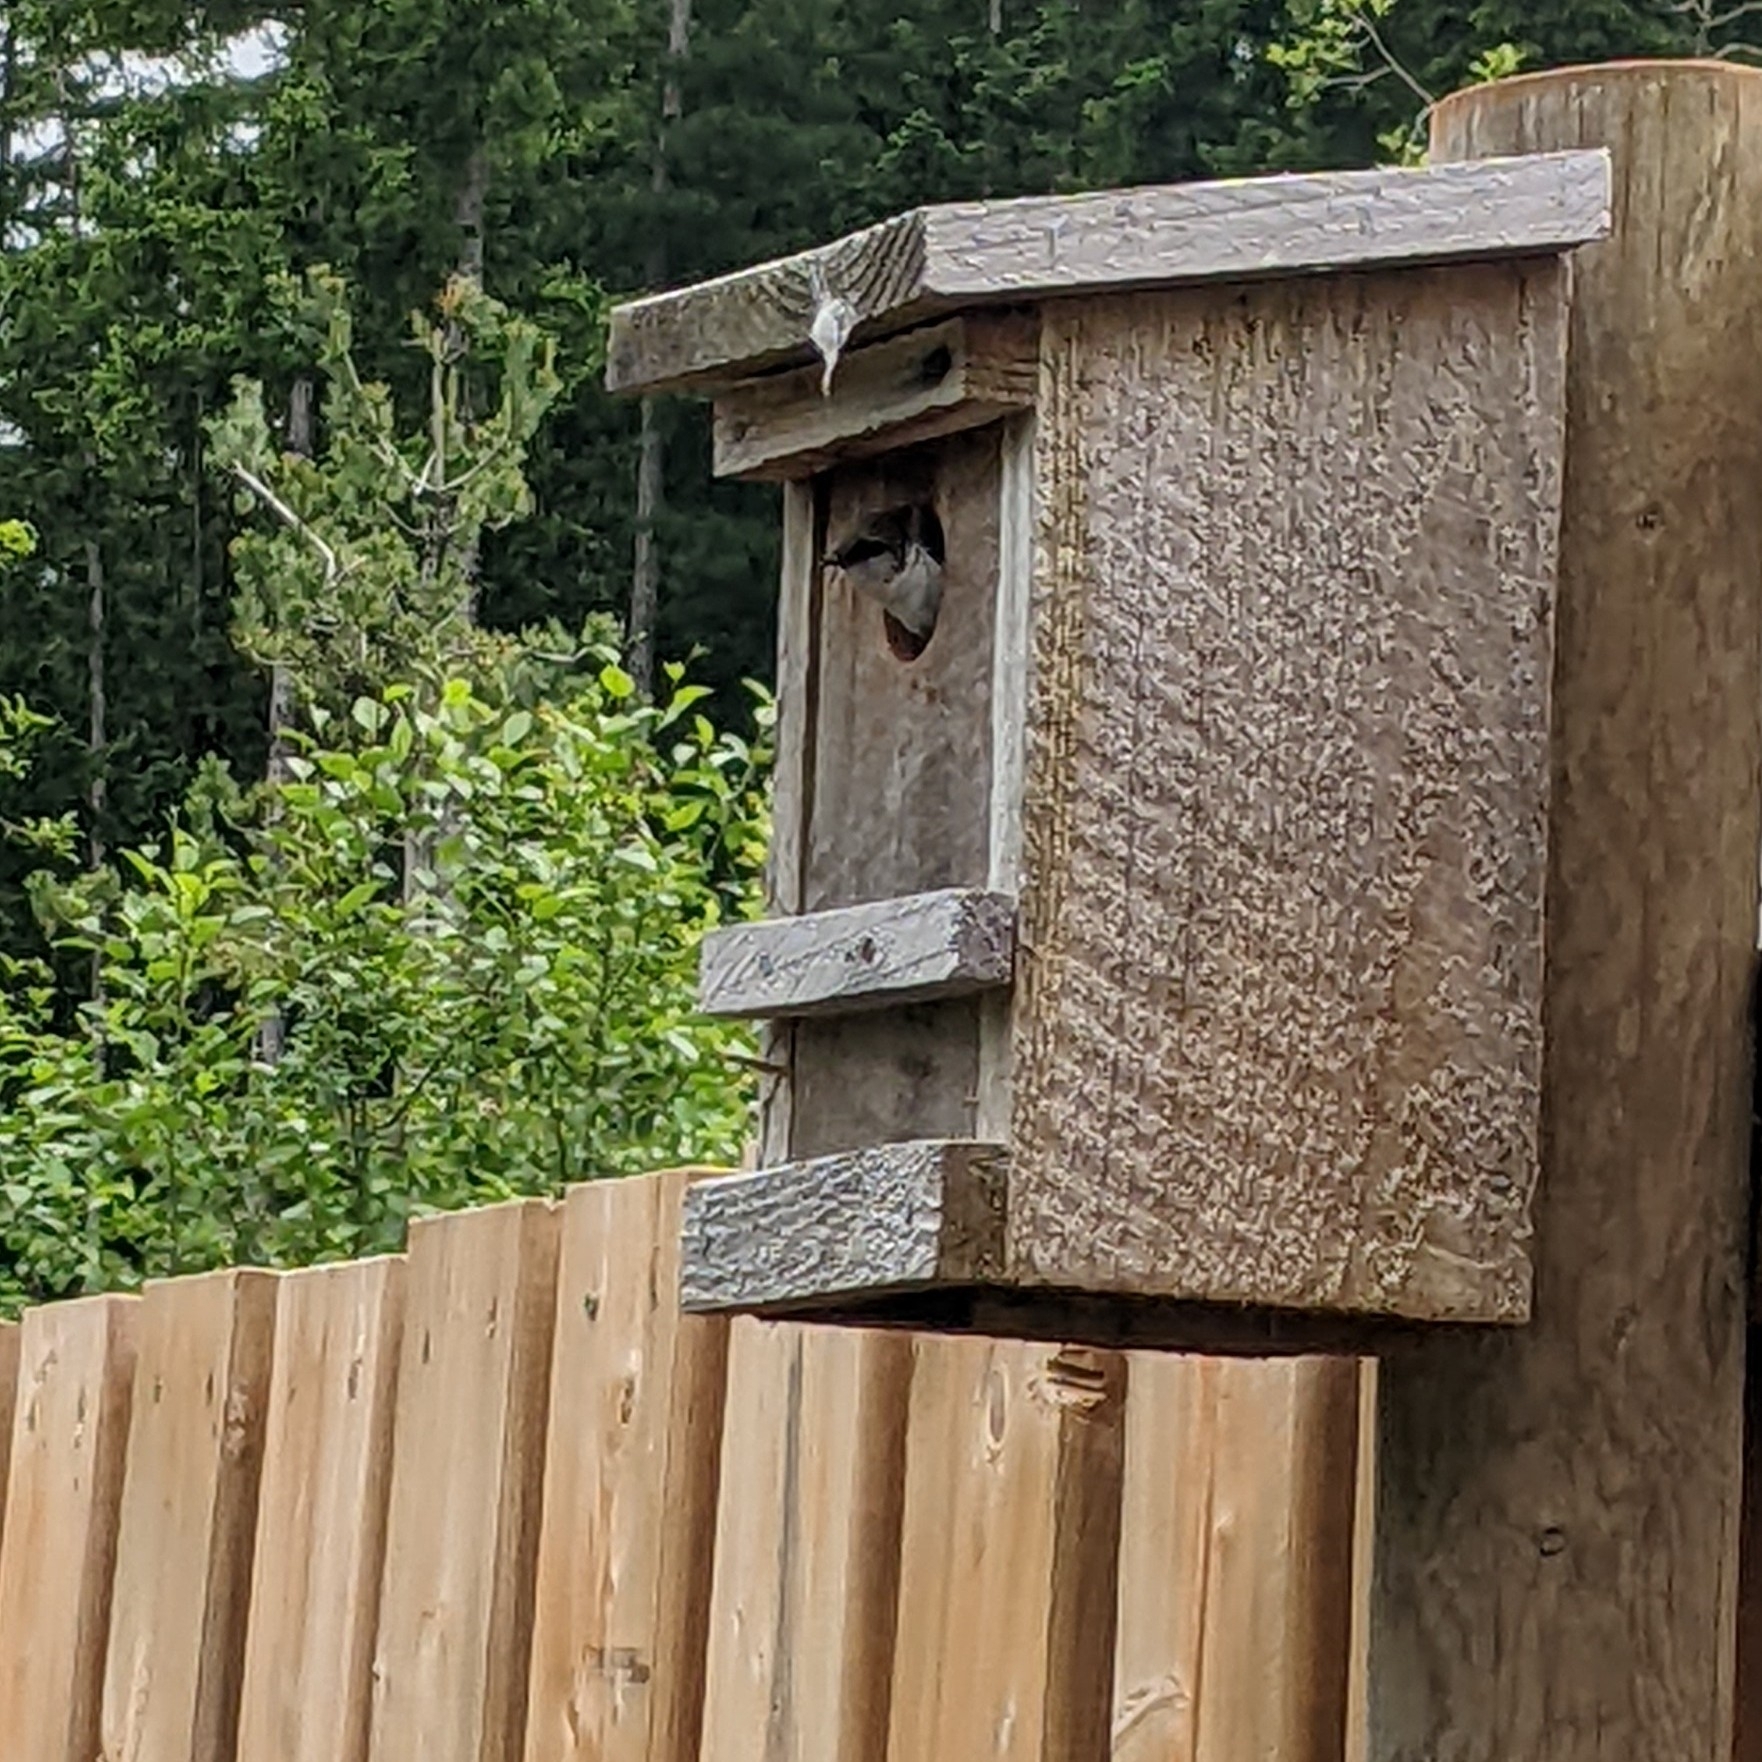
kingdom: Animalia
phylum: Chordata
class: Aves
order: Passeriformes
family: Hirundinidae
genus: Tachycineta
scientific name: Tachycineta thalassina
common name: Violet-green swallow
